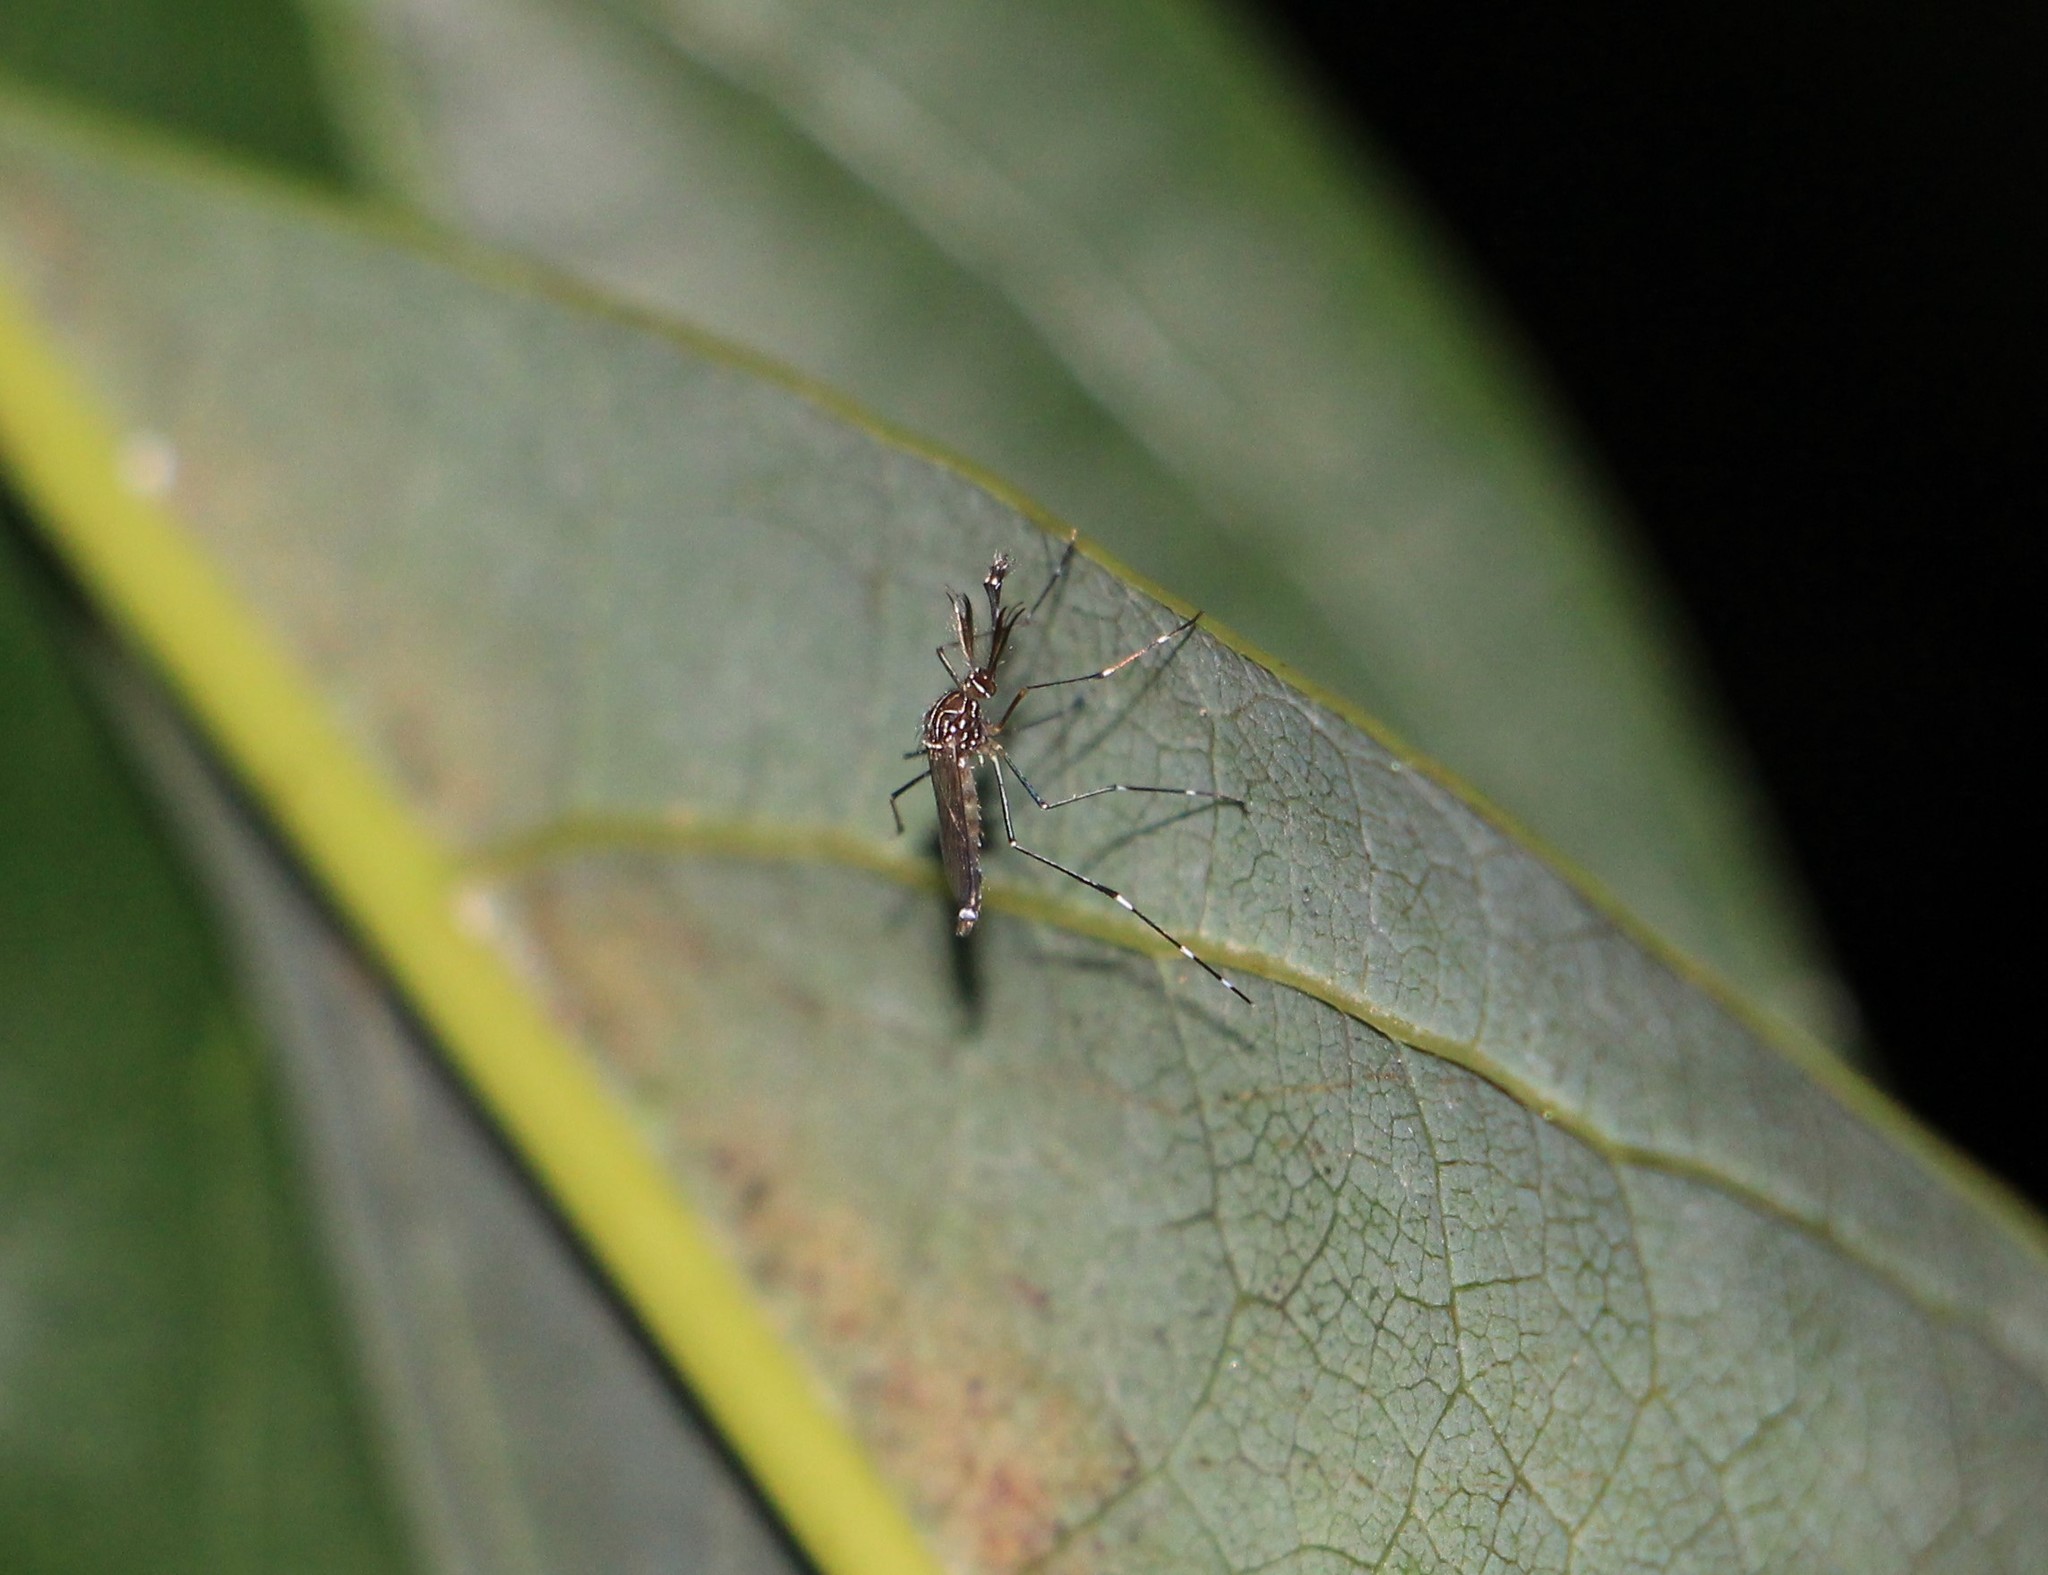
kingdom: Animalia
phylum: Arthropoda
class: Insecta
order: Diptera
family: Culicidae
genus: Aedes
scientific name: Aedes notoscriptus
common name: Australian backyard mosquito
